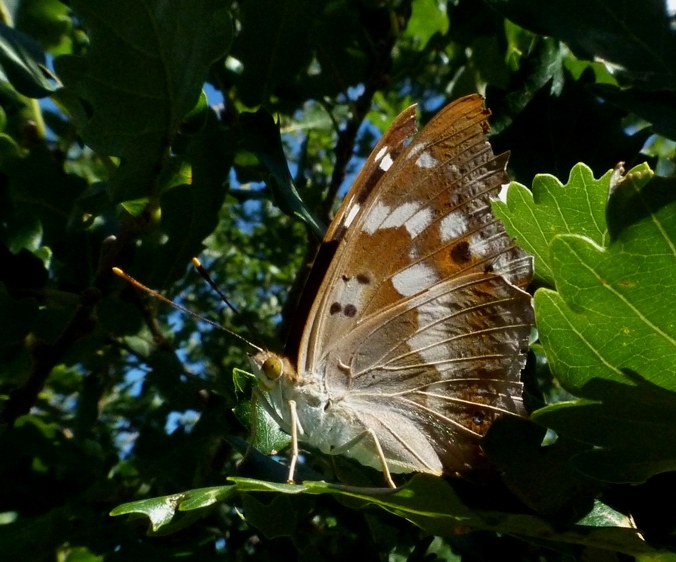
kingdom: Animalia
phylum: Arthropoda
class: Insecta
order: Lepidoptera
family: Nymphalidae
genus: Apatura
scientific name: Apatura ilia
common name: Lesser purple emperor
